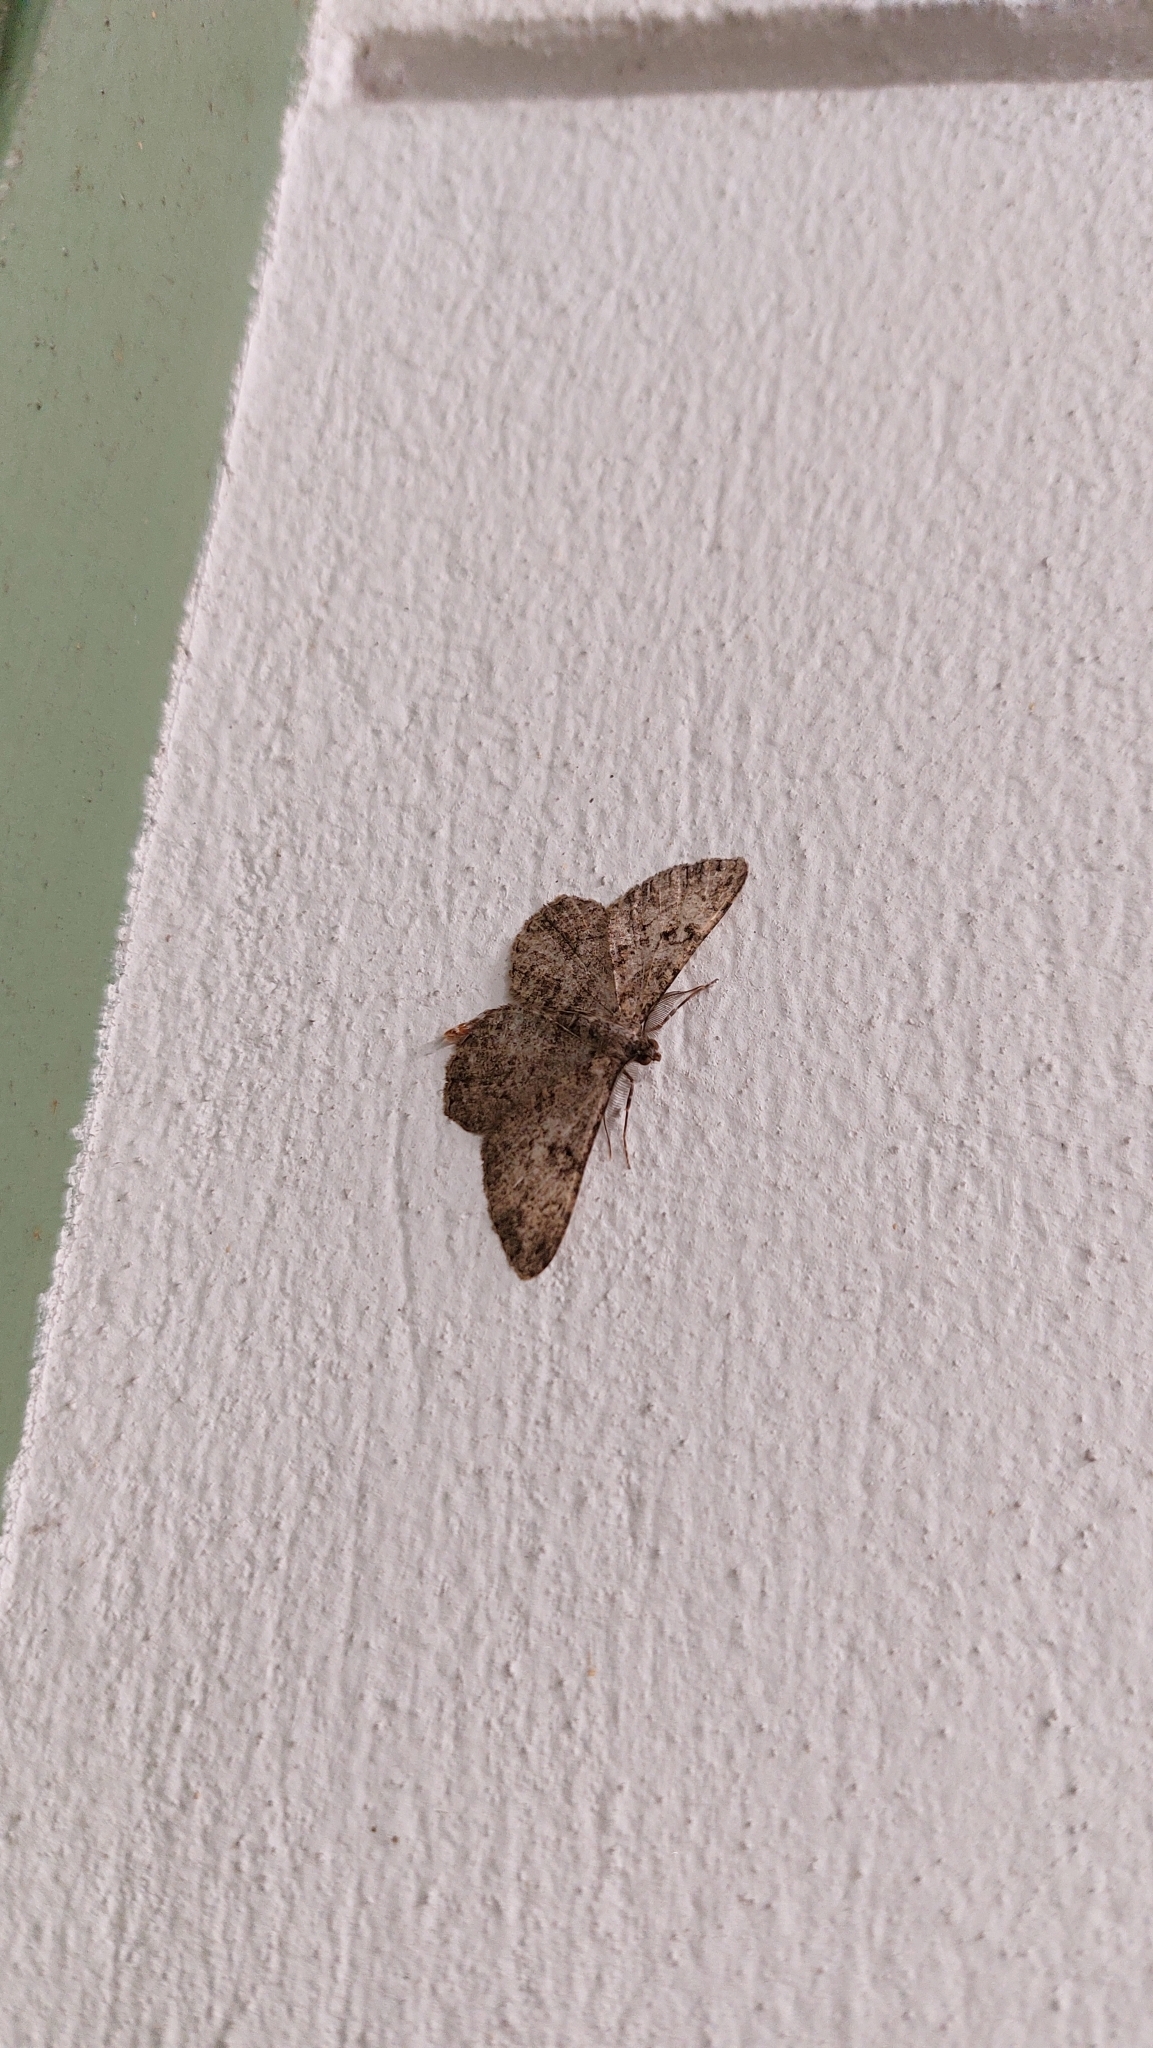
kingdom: Animalia
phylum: Arthropoda
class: Insecta
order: Lepidoptera
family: Geometridae
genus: Peribatodes
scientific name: Peribatodes rhomboidaria
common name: Willow beauty
